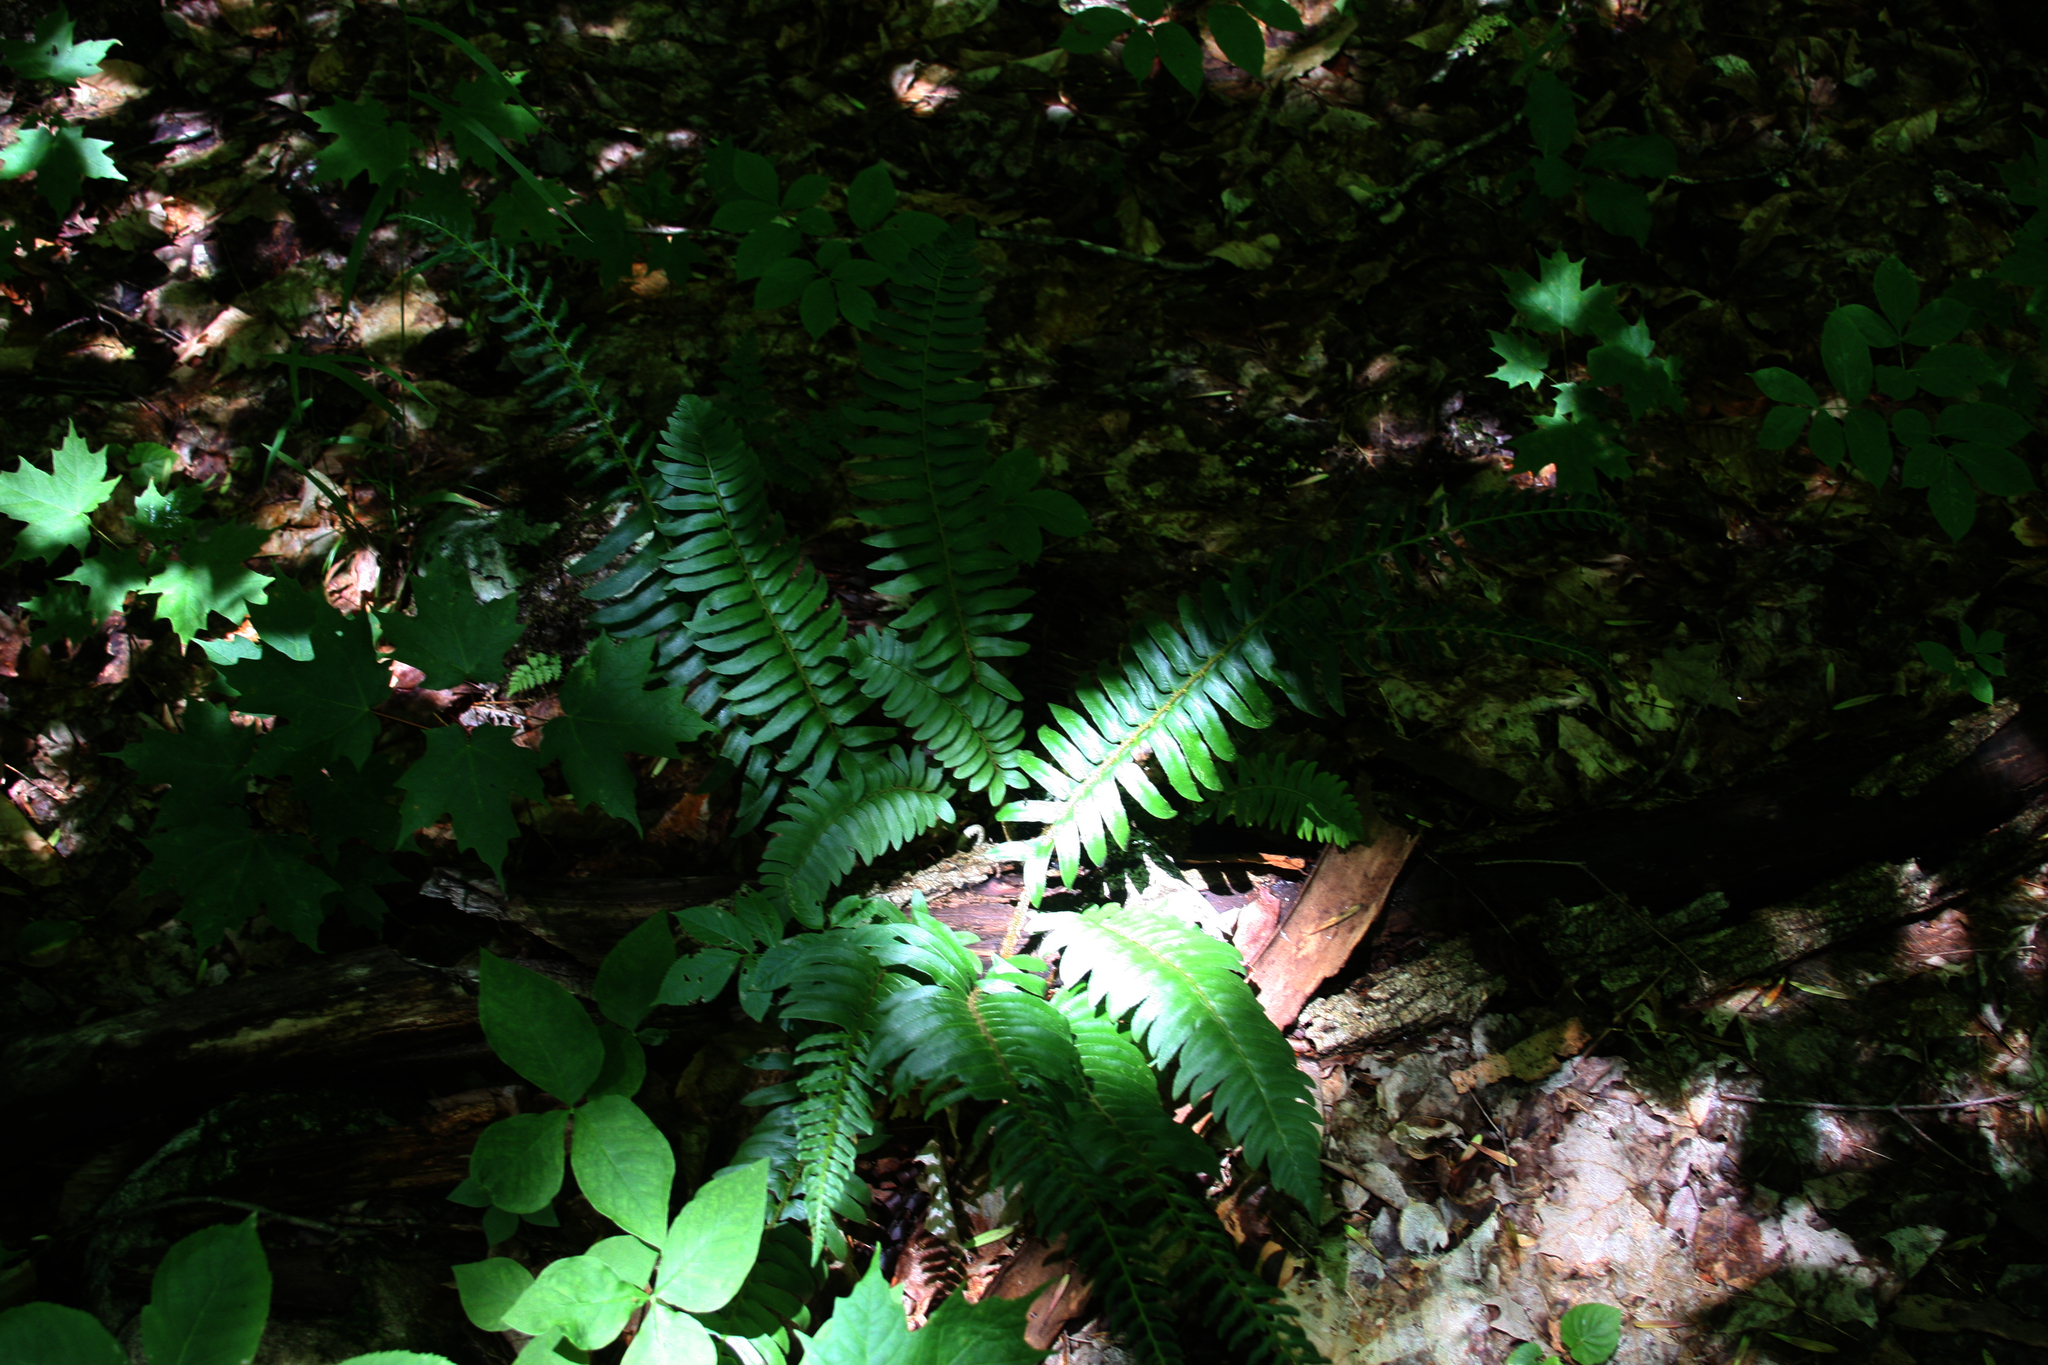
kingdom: Plantae
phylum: Tracheophyta
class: Polypodiopsida
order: Polypodiales
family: Dryopteridaceae
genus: Polystichum
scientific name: Polystichum acrostichoides
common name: Christmas fern
